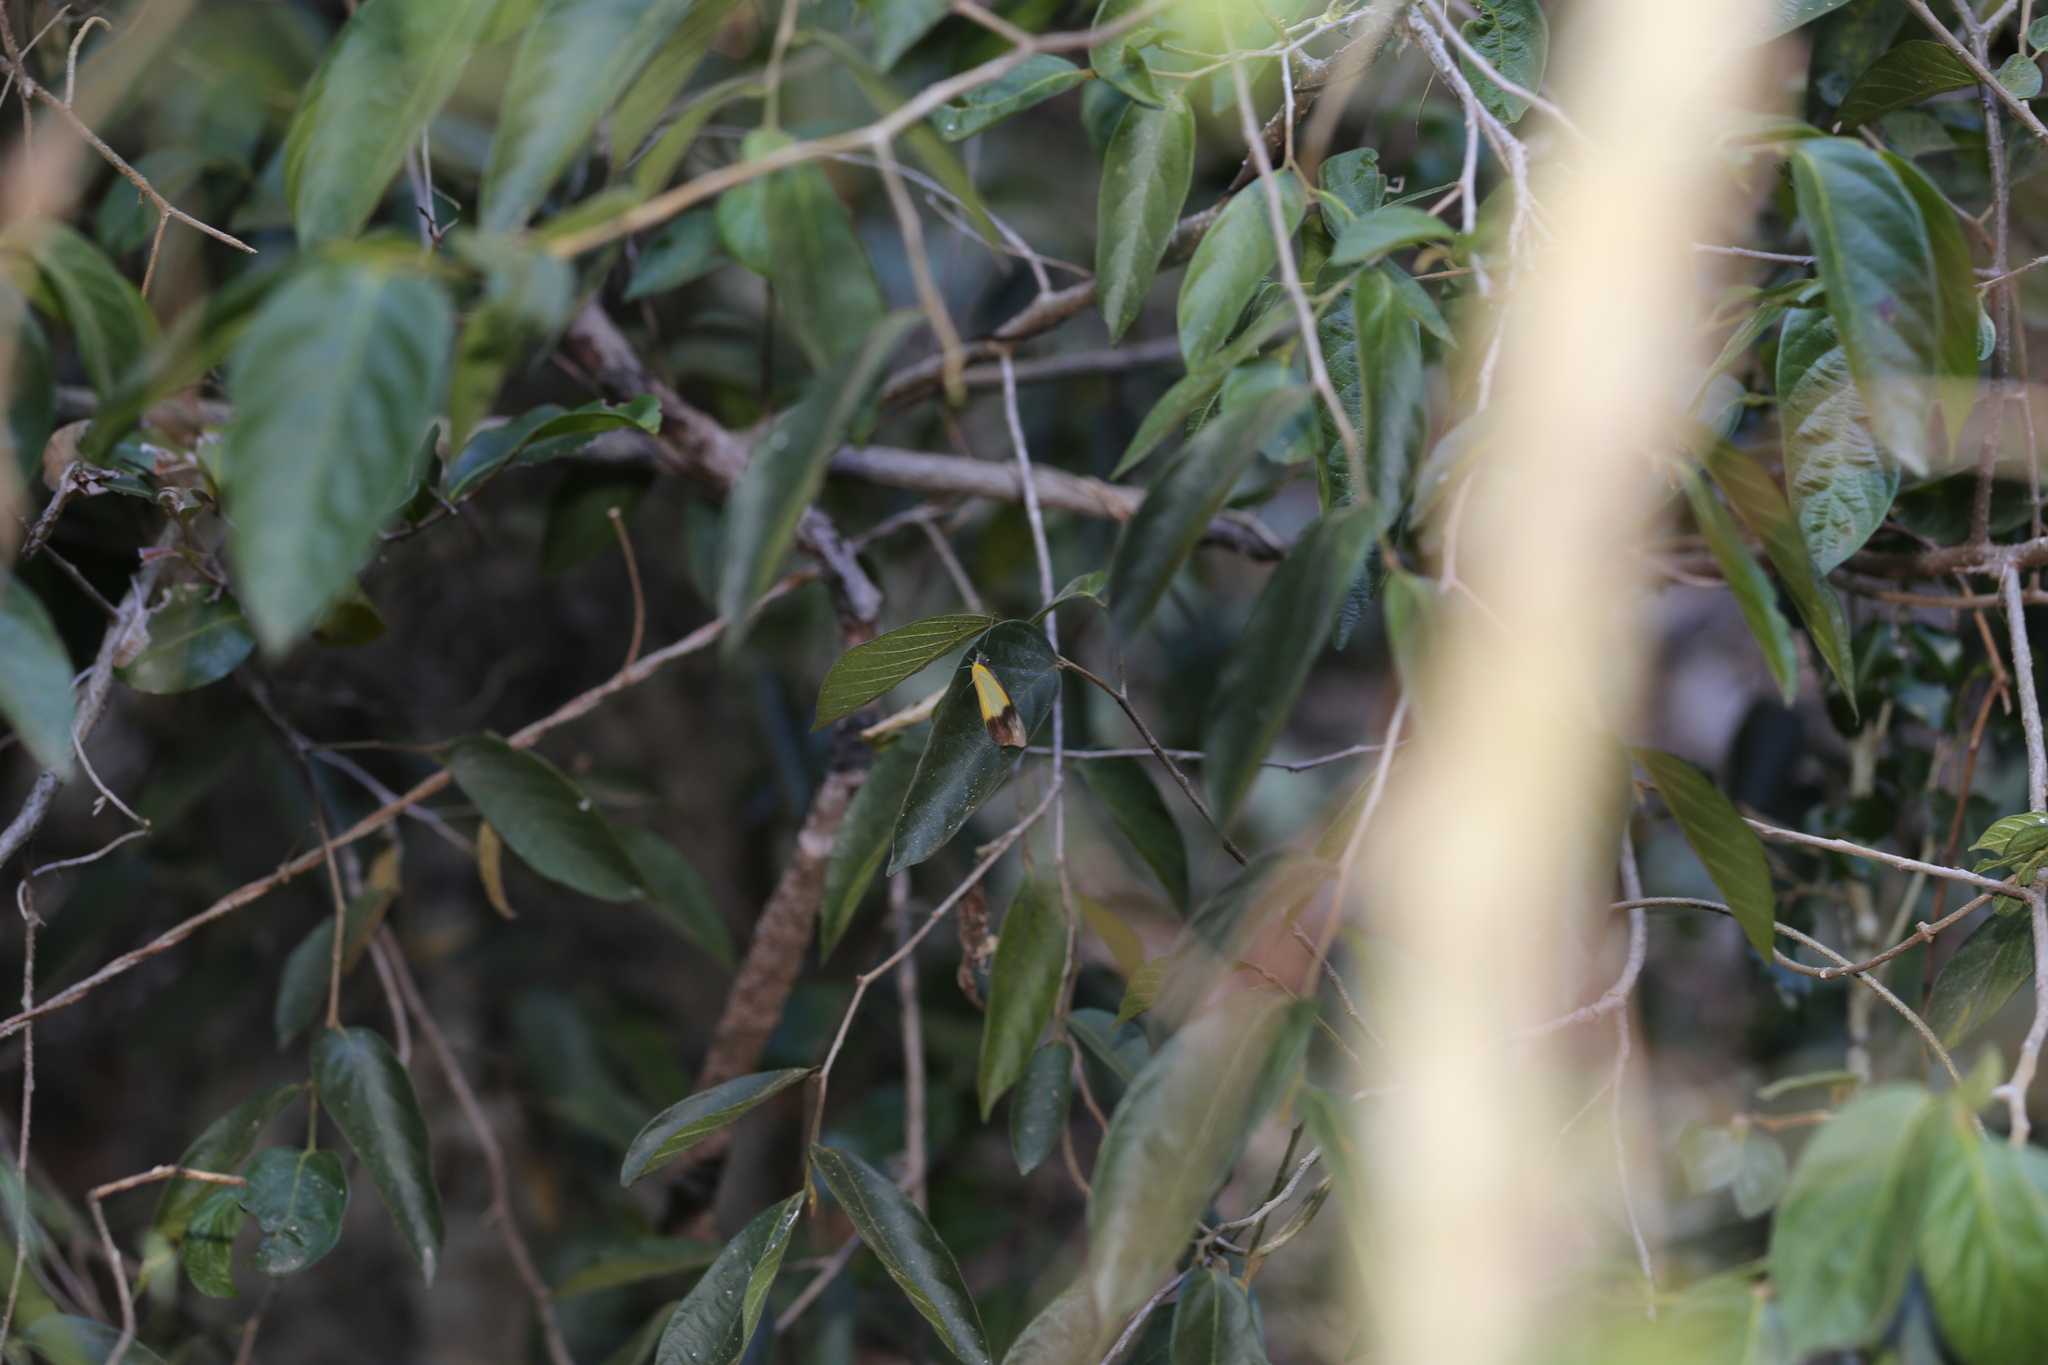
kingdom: Animalia
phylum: Arthropoda
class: Insecta
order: Lepidoptera
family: Pieridae
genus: Appias
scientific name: Appias paulina
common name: Ceylon lesser albatross
